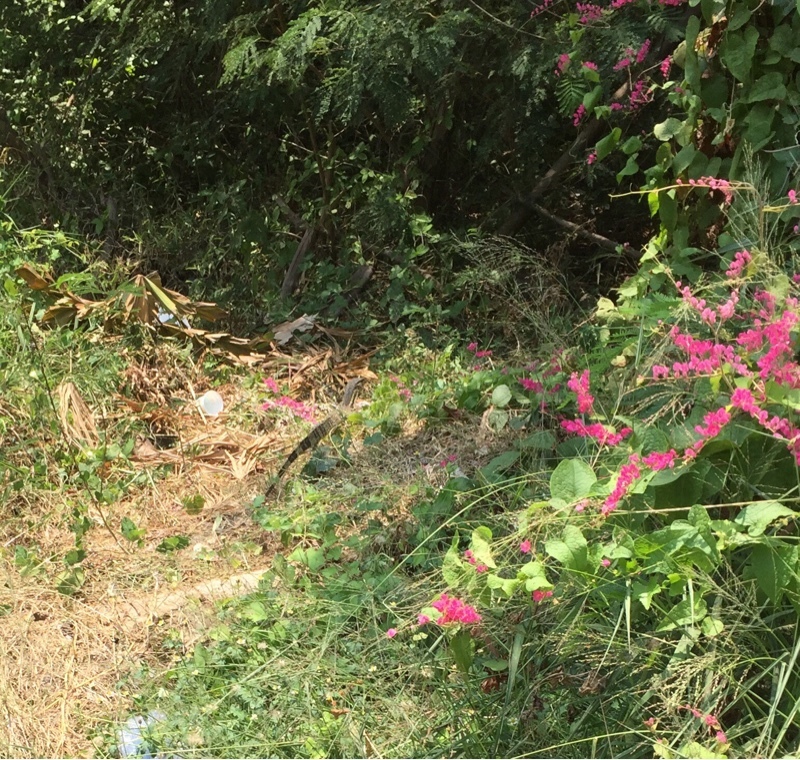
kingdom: Animalia
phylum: Chordata
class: Squamata
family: Varanidae
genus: Varanus
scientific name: Varanus salvator
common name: Common water monitor
